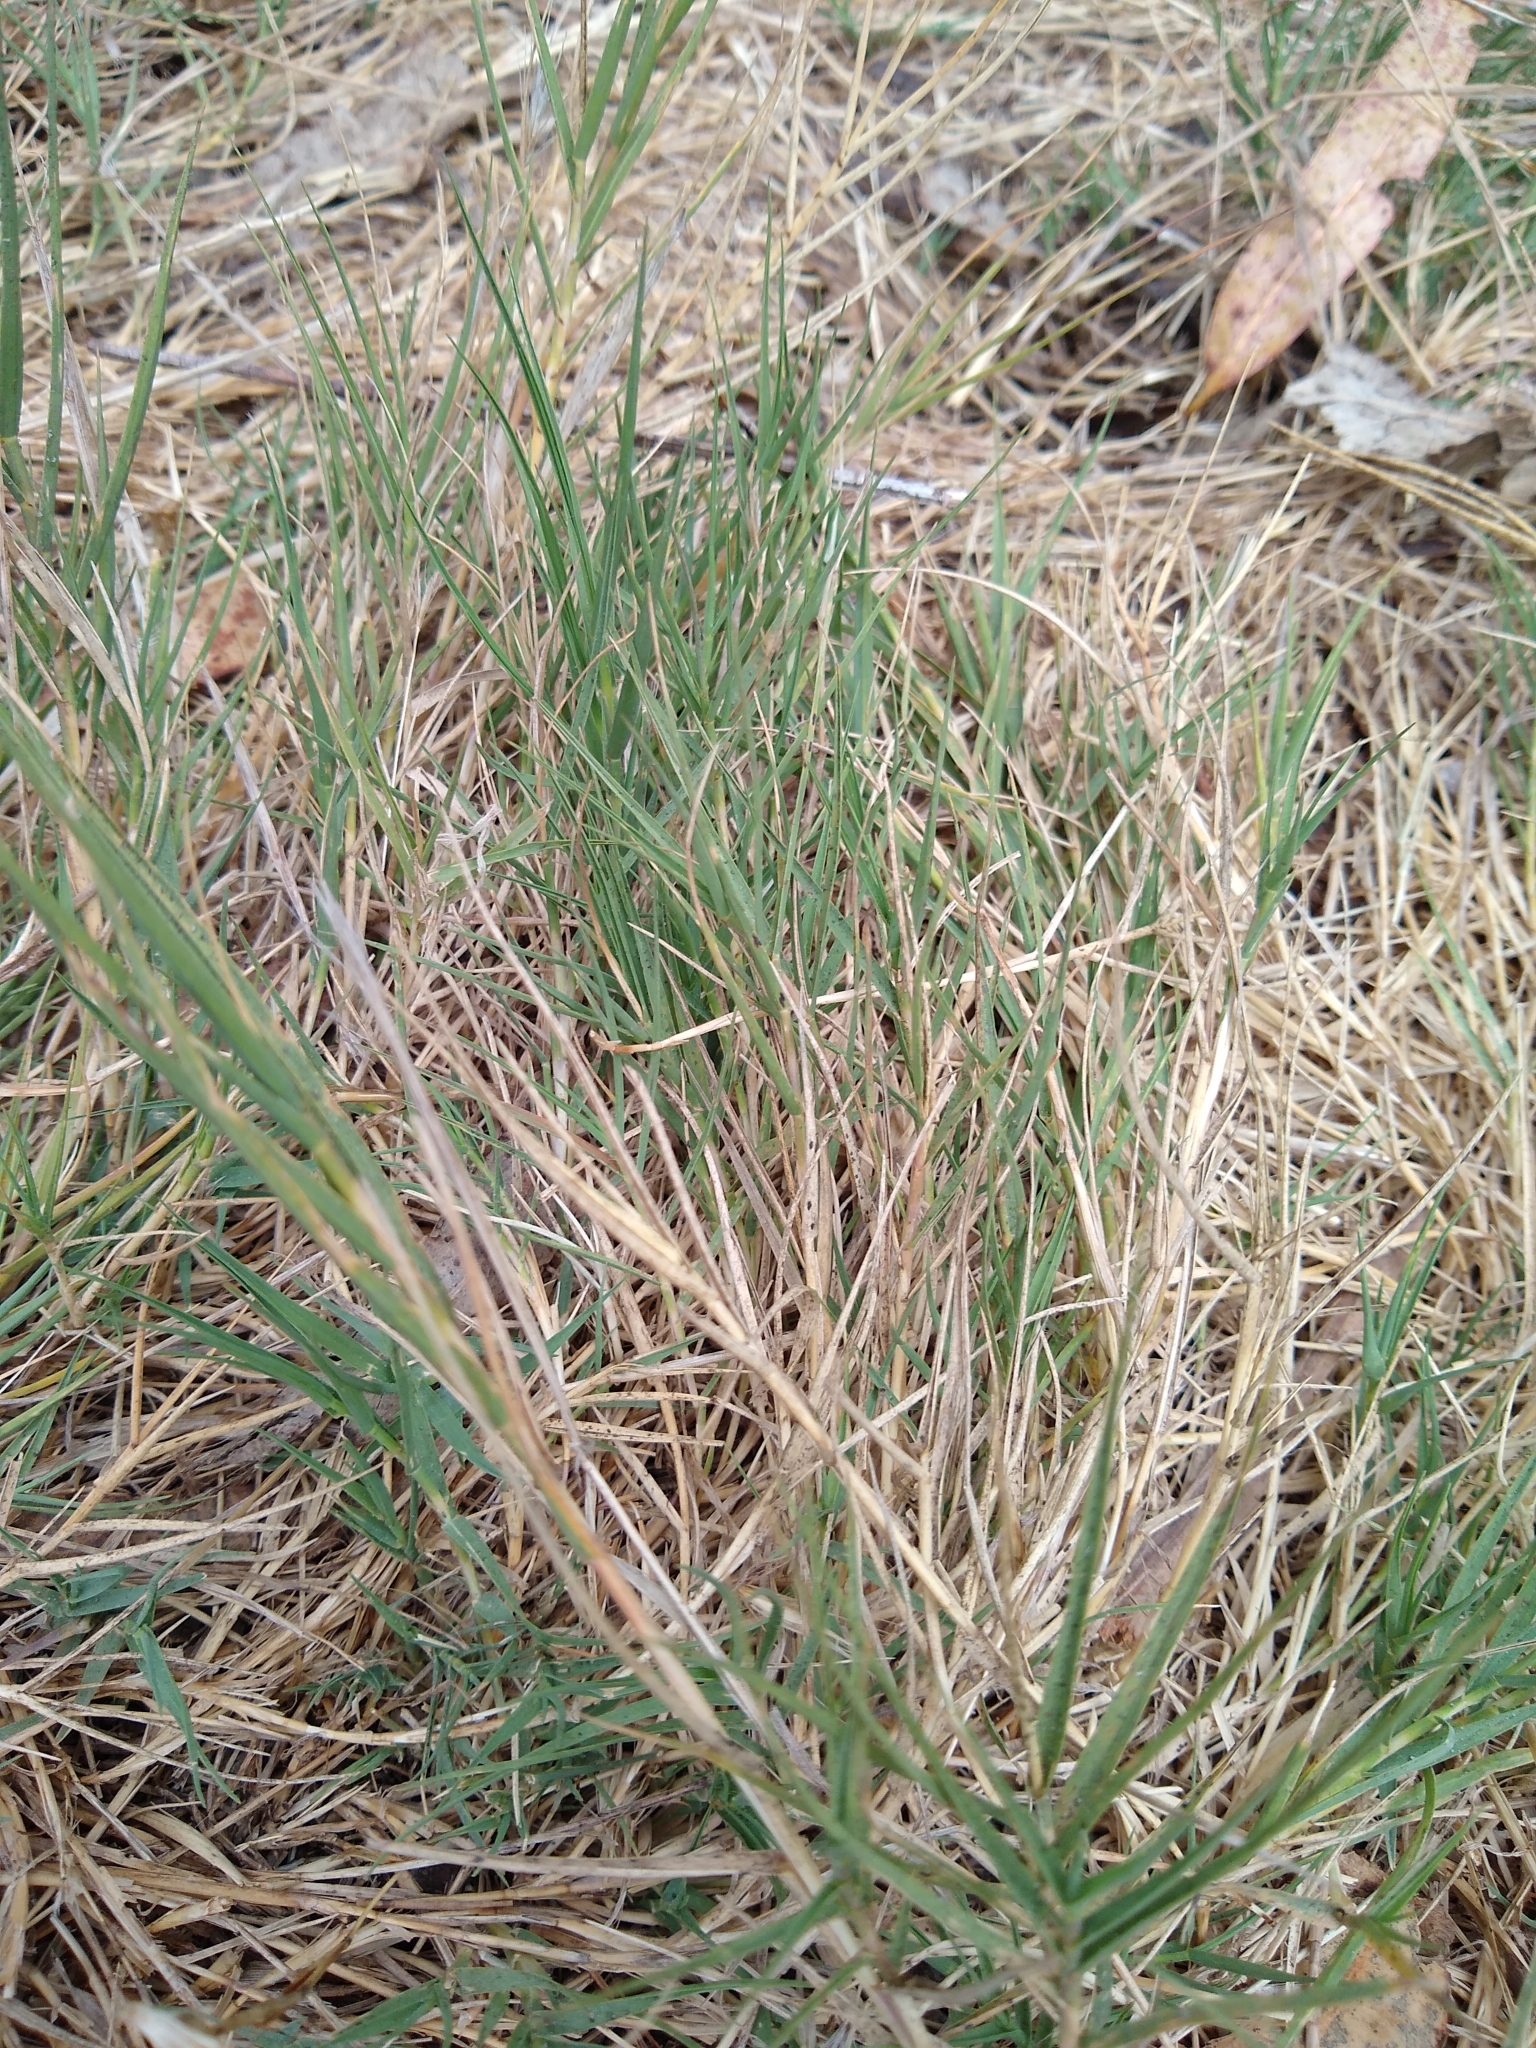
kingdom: Plantae
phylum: Tracheophyta
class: Liliopsida
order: Poales
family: Poaceae
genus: Distichlis
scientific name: Distichlis spicata
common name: Saltgrass
